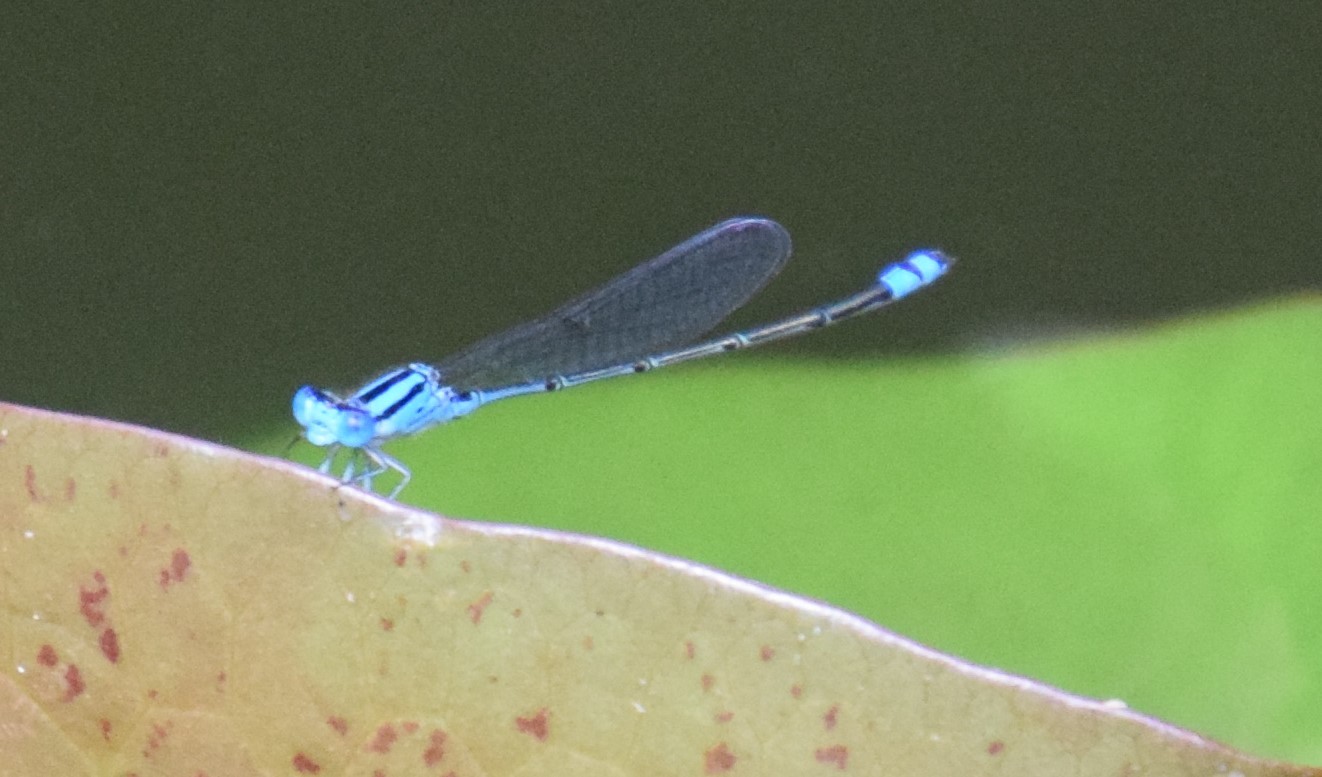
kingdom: Animalia
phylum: Arthropoda
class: Insecta
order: Odonata
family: Coenagrionidae
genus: Pseudagrion
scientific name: Pseudagrion microcephalum
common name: Blue riverdamsel
